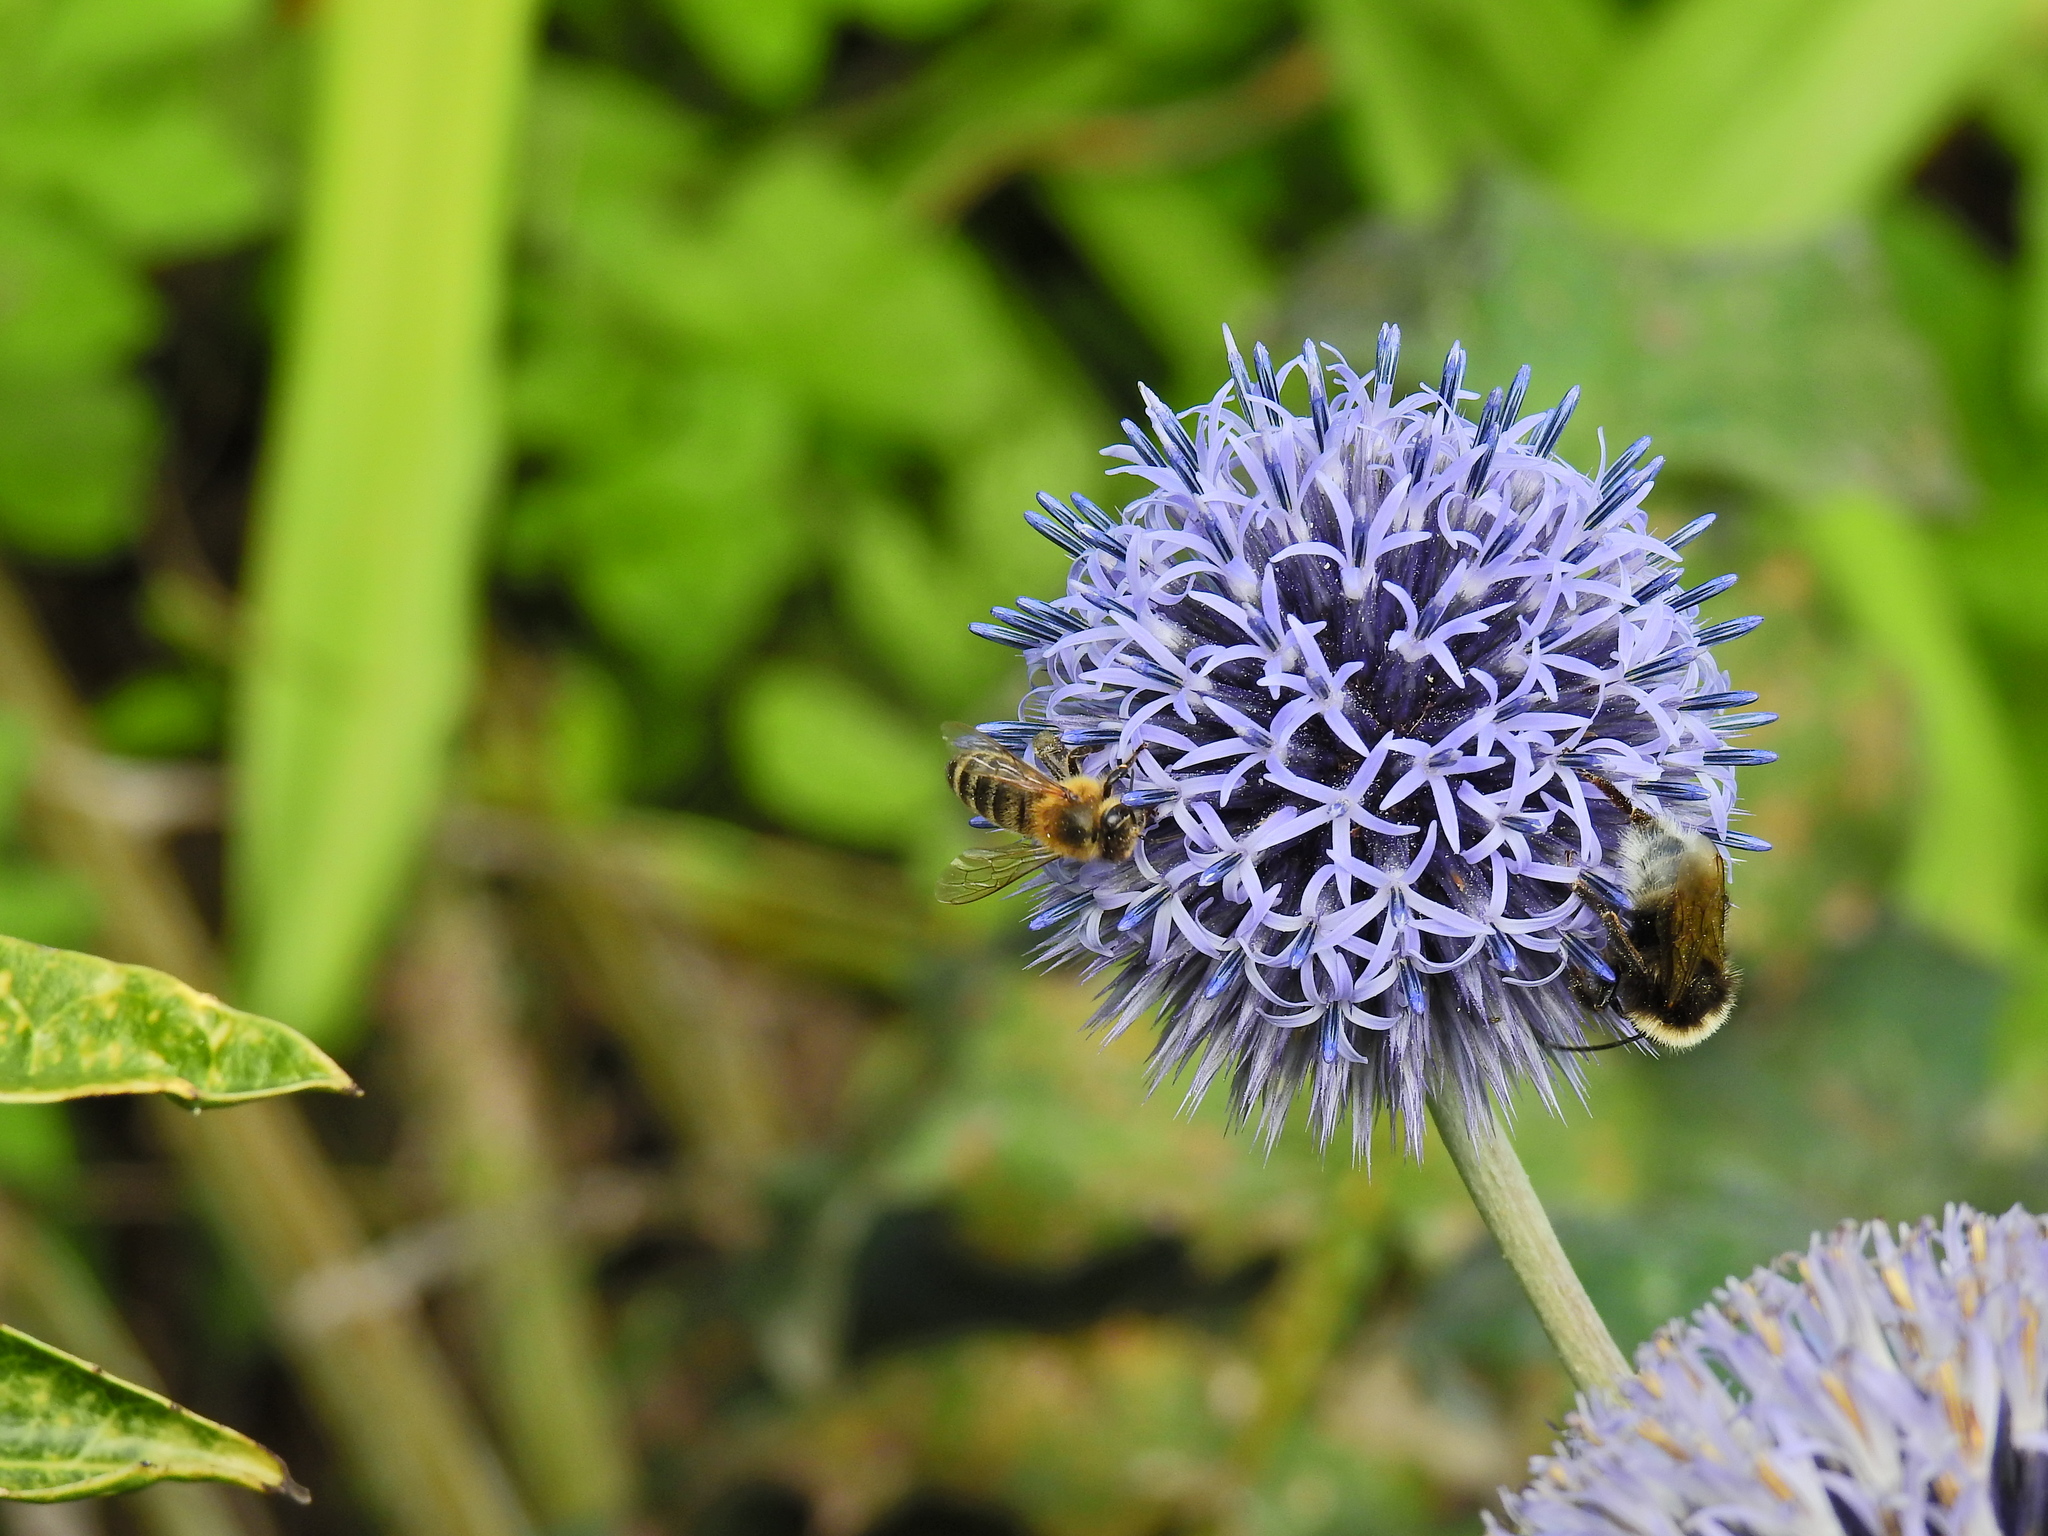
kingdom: Animalia
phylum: Arthropoda
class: Insecta
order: Hymenoptera
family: Apidae
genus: Apis
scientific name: Apis mellifera
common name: Honey bee
